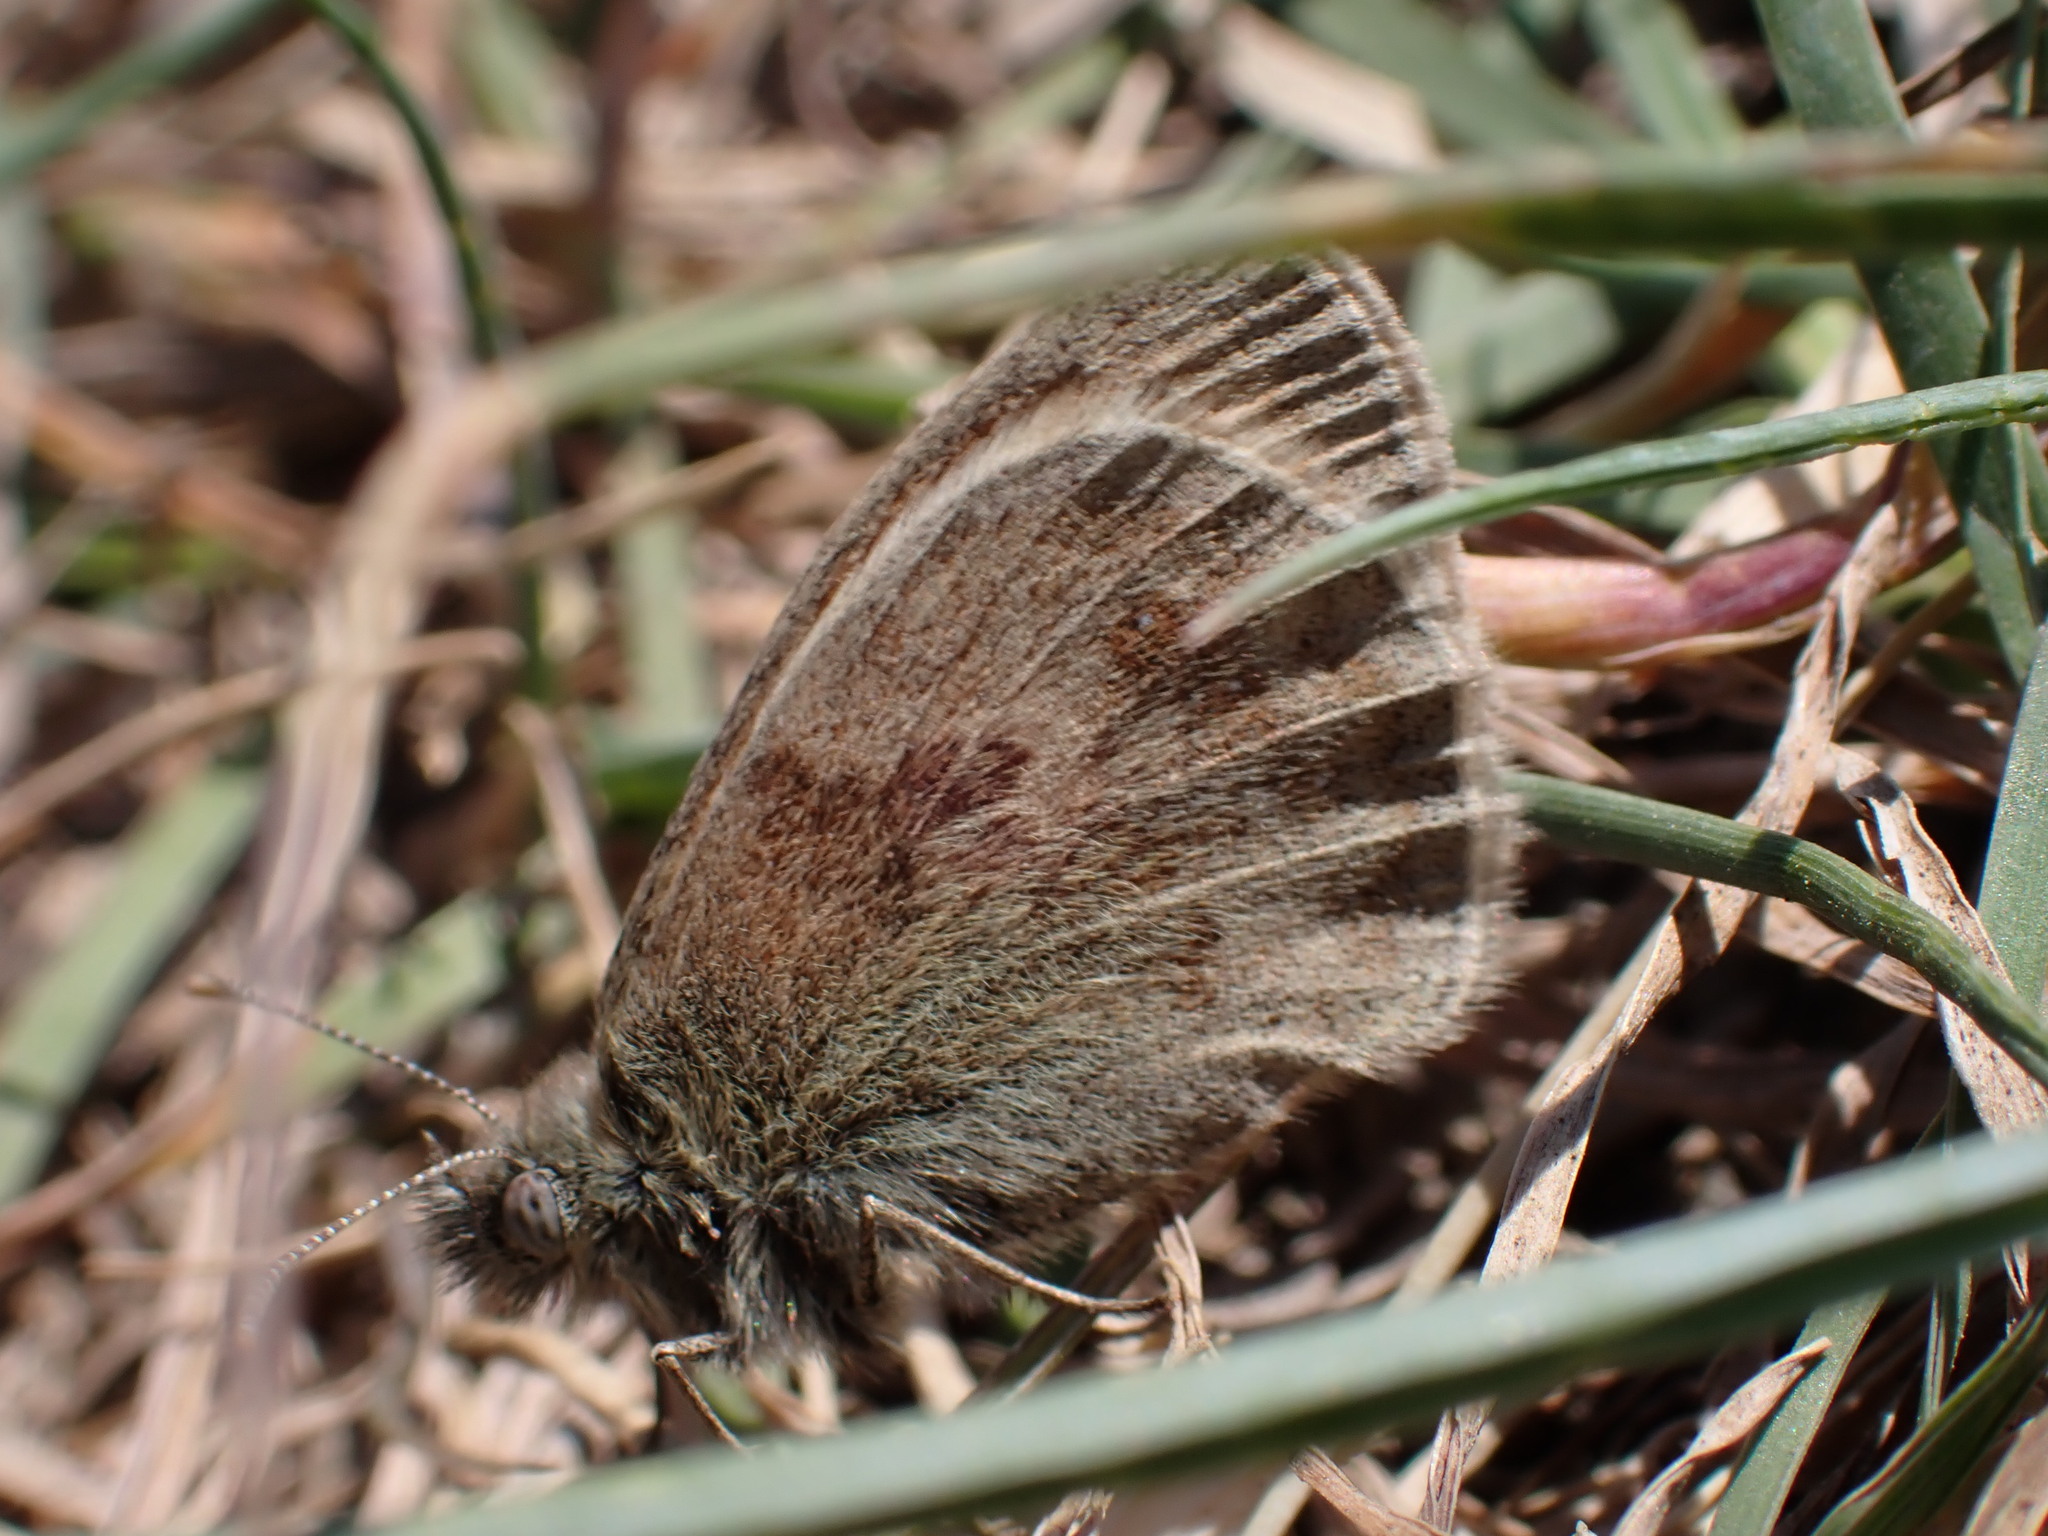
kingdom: Animalia
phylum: Arthropoda
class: Insecta
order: Lepidoptera
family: Nymphalidae
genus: Coenonympha
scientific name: Coenonympha pamphilus
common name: Small heath
